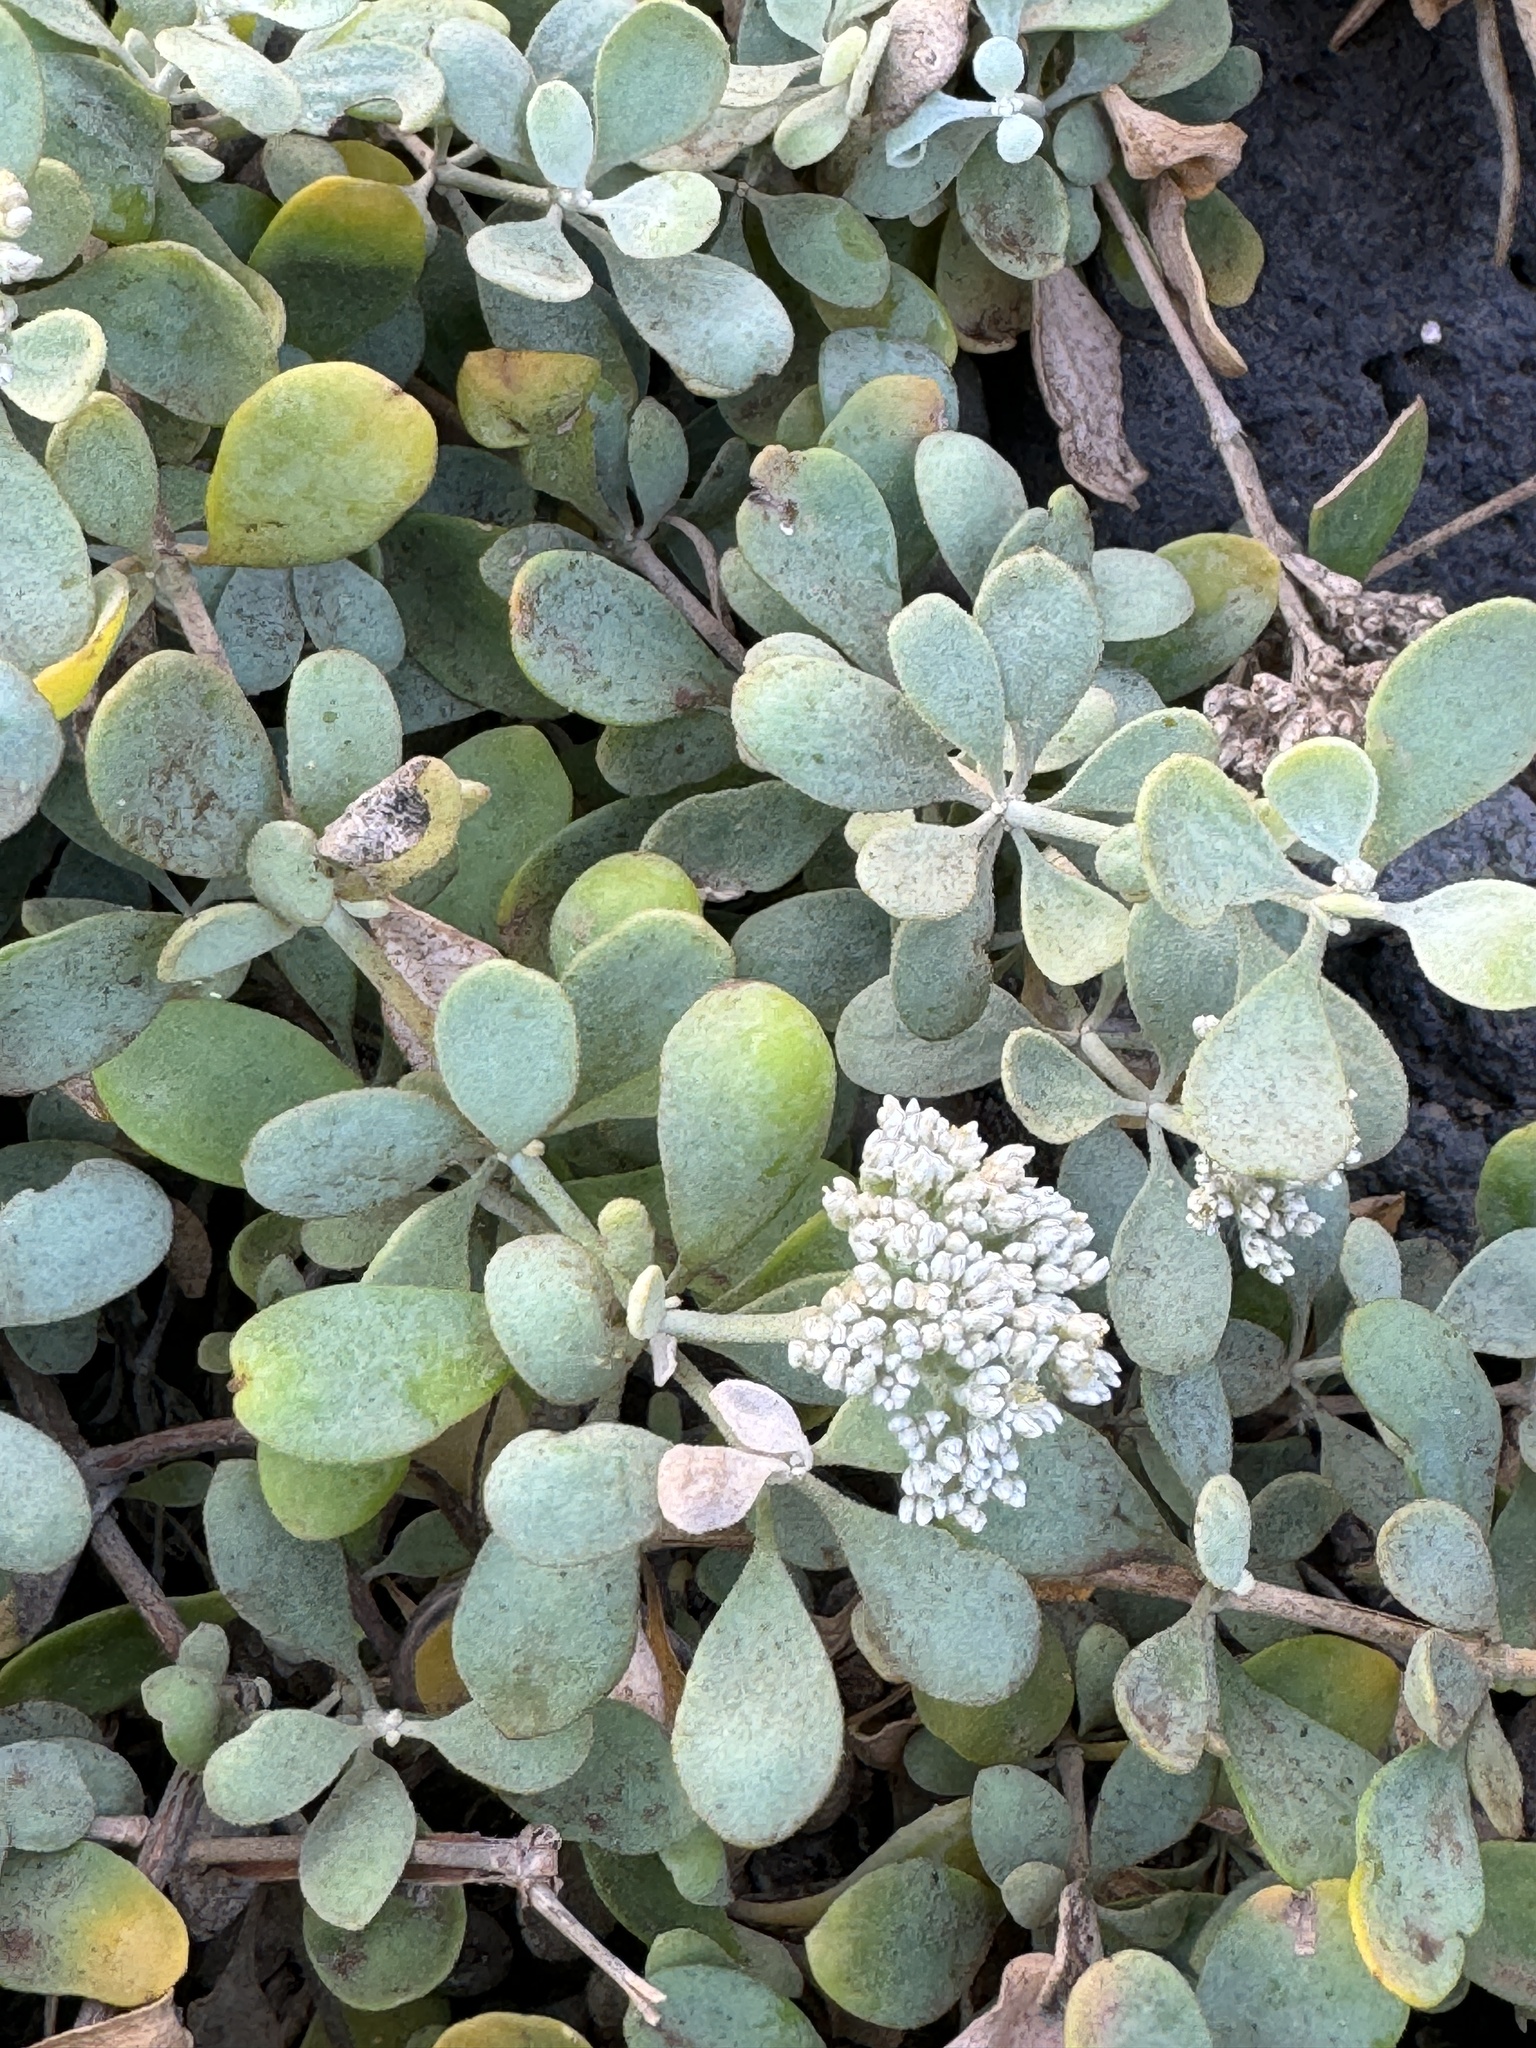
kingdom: Plantae
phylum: Tracheophyta
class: Magnoliopsida
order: Caryophyllales
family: Caryophyllaceae
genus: Polycarpaea
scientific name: Polycarpaea nivea
